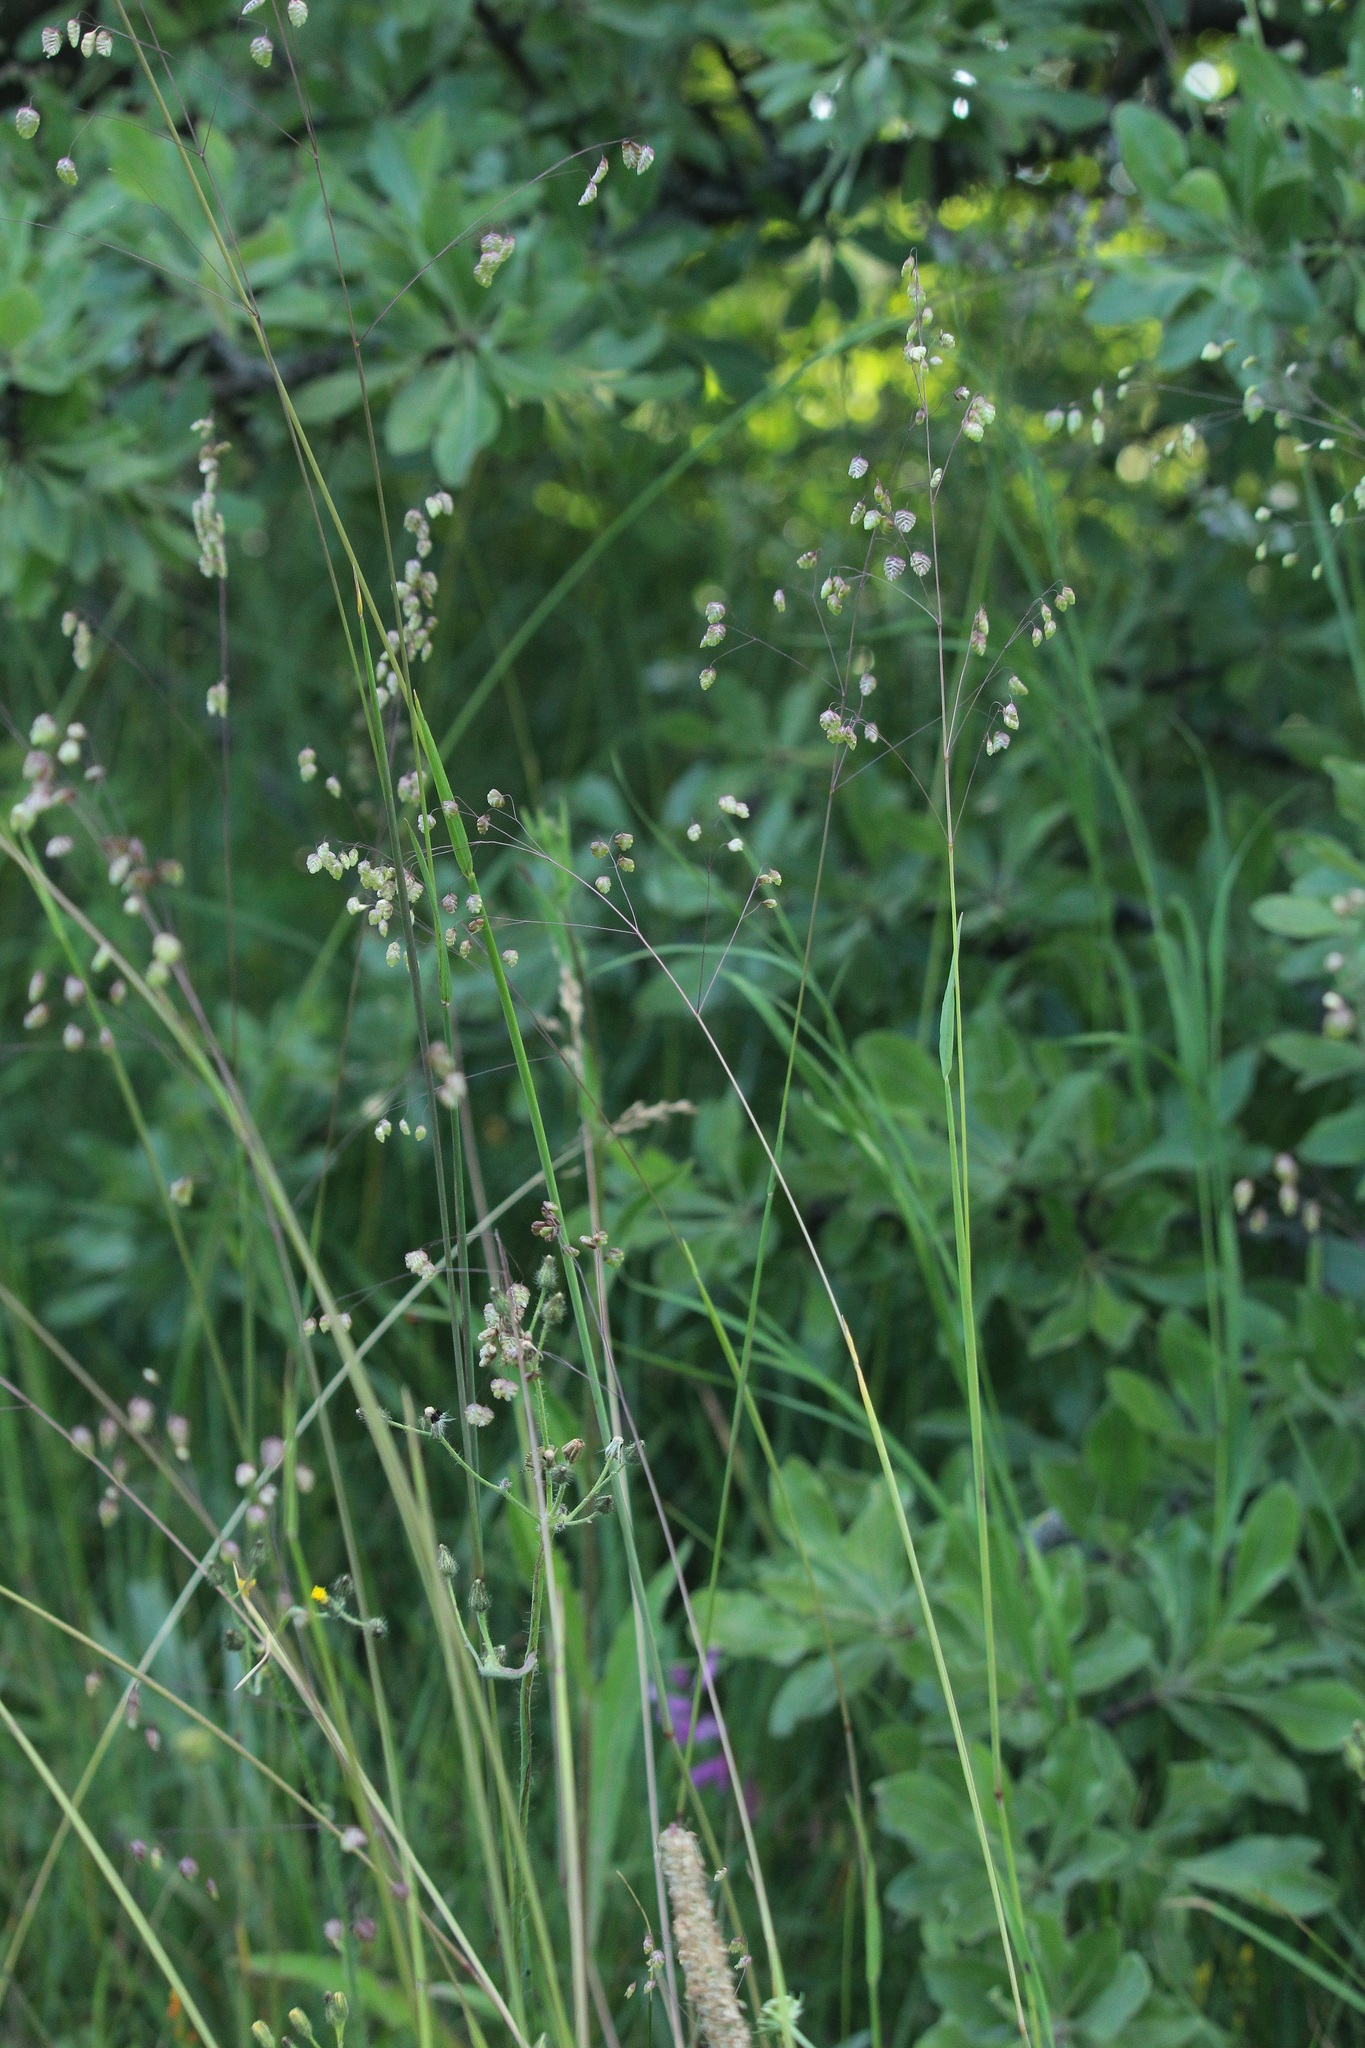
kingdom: Plantae
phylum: Tracheophyta
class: Liliopsida
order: Poales
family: Poaceae
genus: Briza
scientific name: Briza media
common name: Quaking grass
